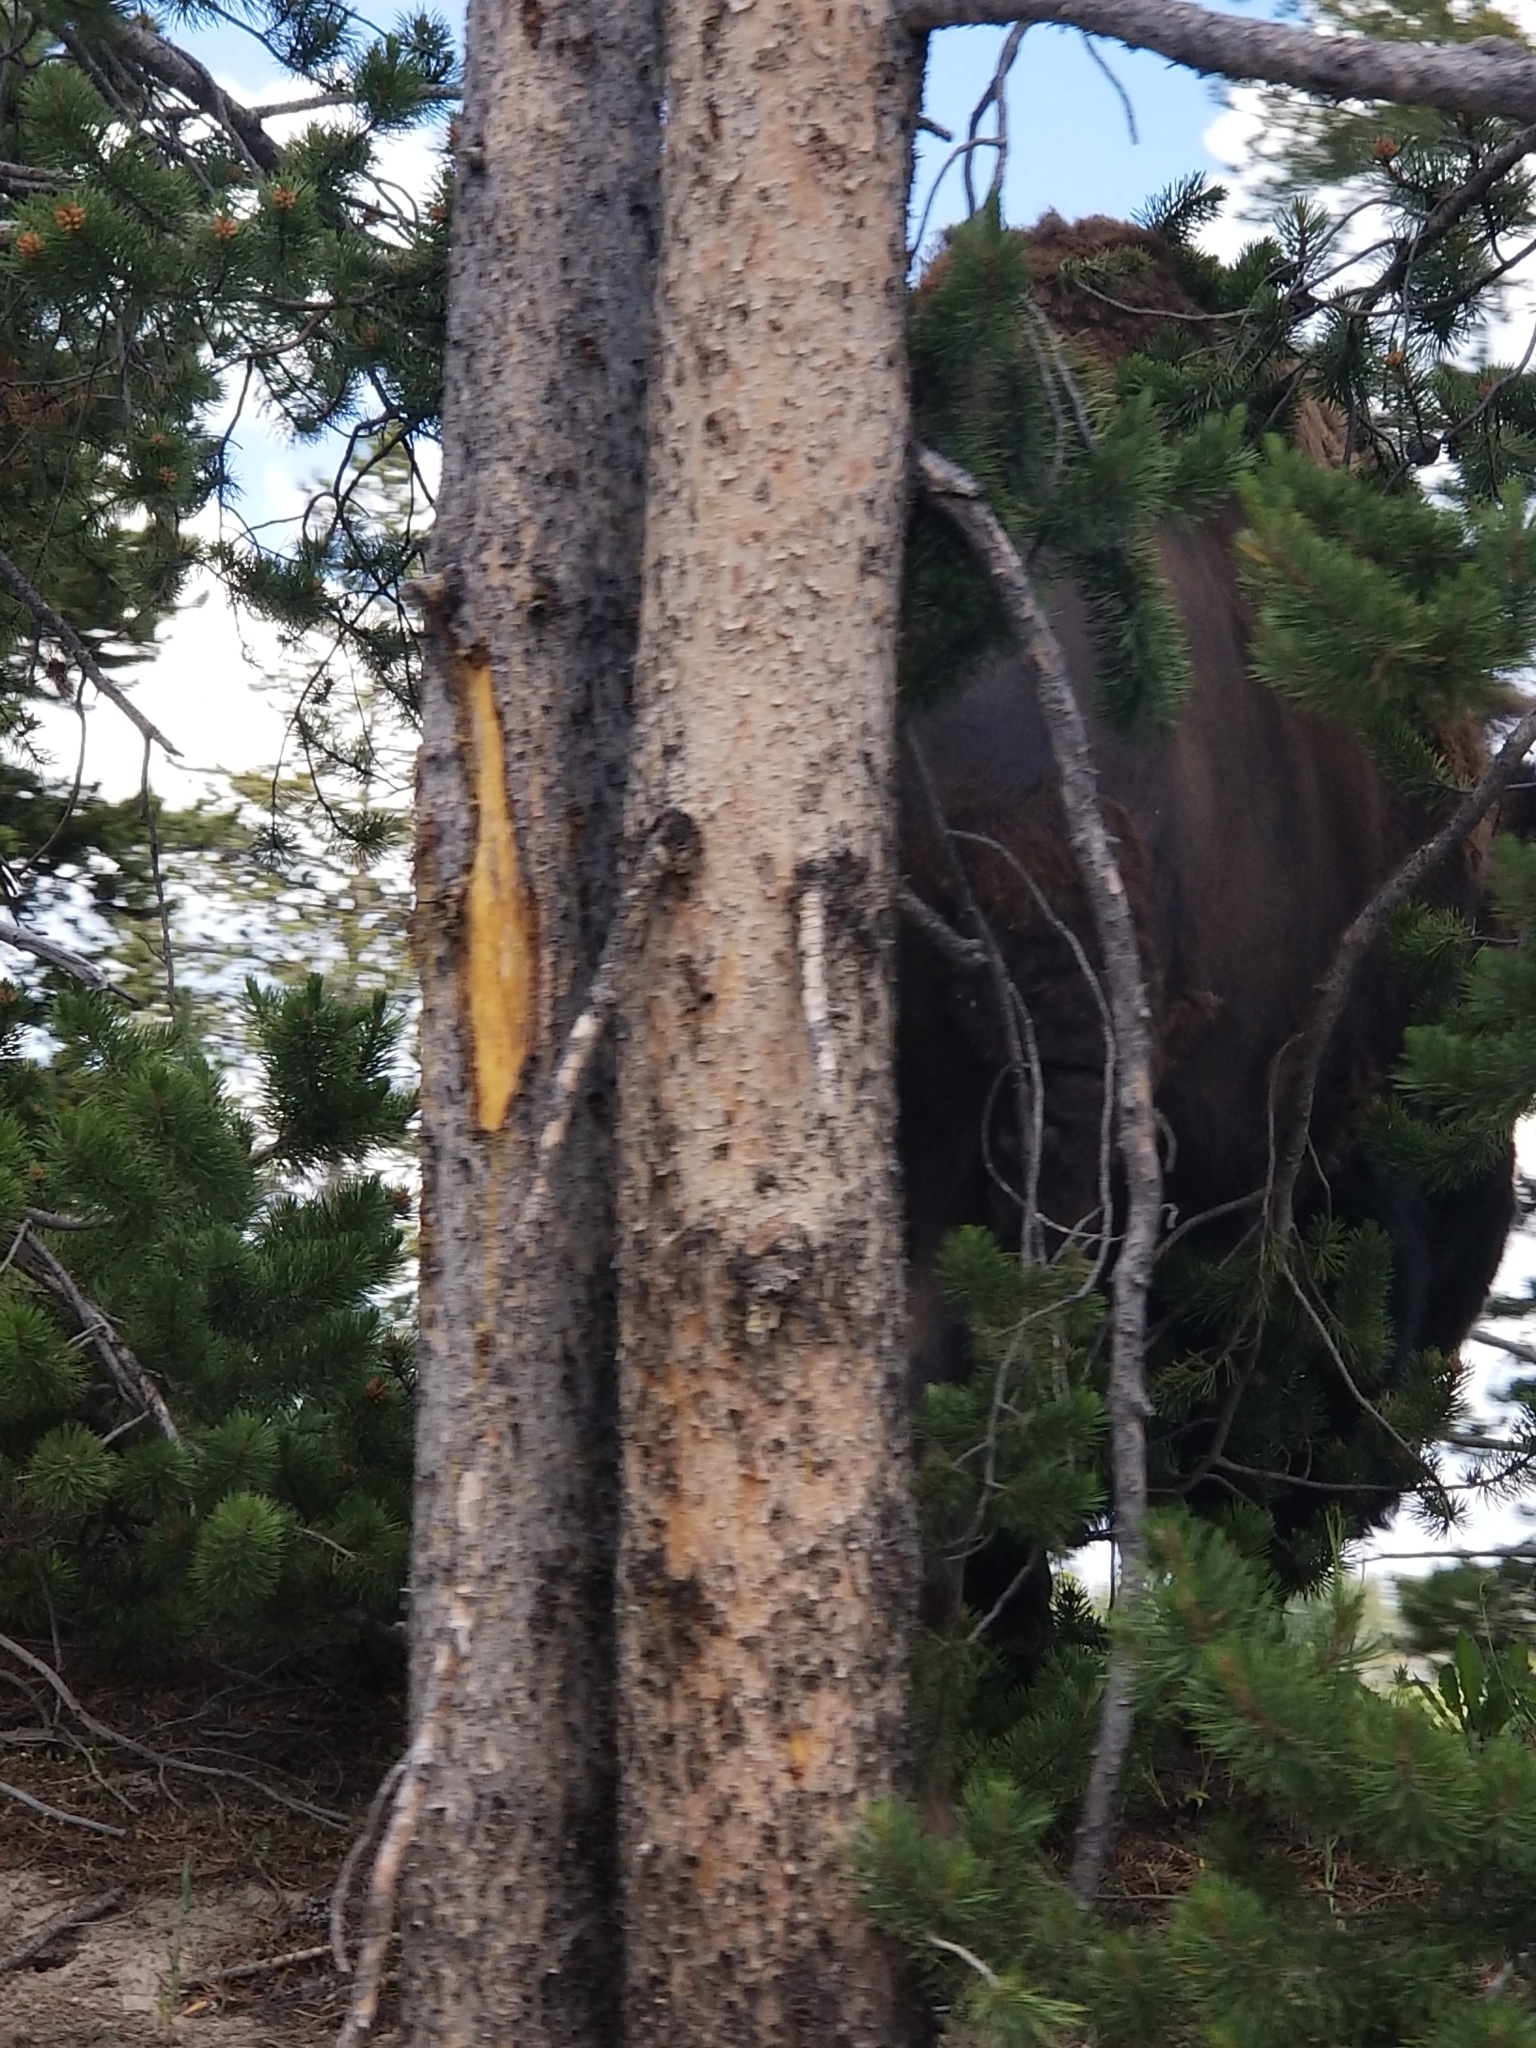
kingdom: Animalia
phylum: Chordata
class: Mammalia
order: Artiodactyla
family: Bovidae
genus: Bison
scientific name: Bison bison
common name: American bison
